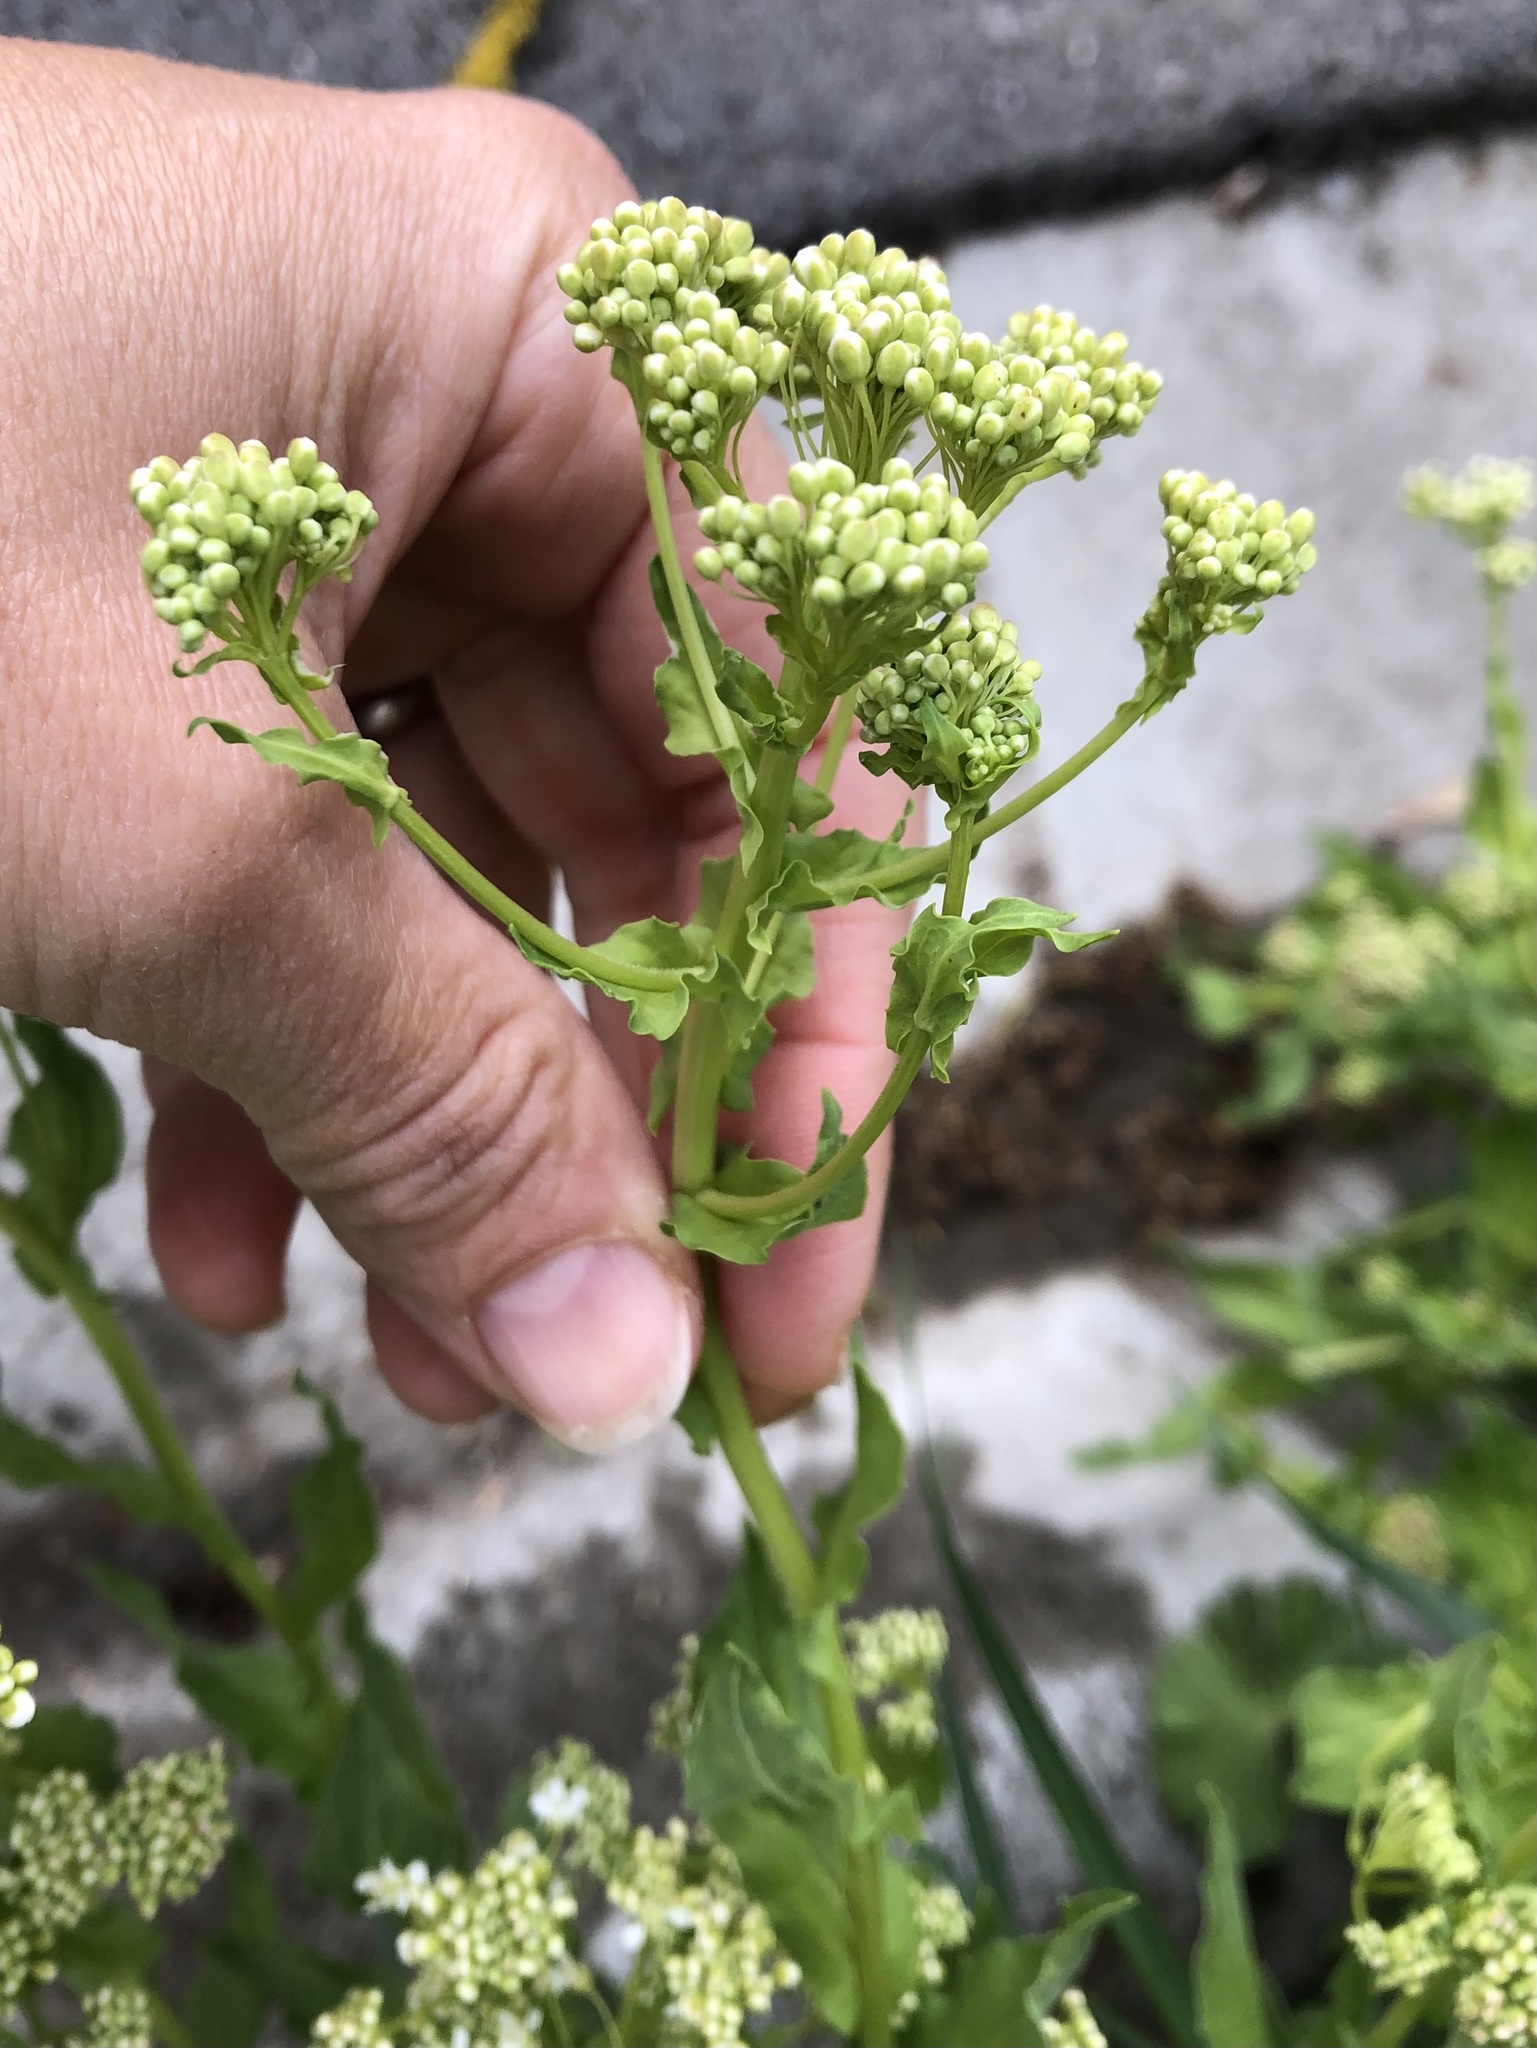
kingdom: Plantae
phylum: Tracheophyta
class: Magnoliopsida
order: Brassicales
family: Brassicaceae
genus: Lepidium
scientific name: Lepidium draba
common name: Hoary cress
